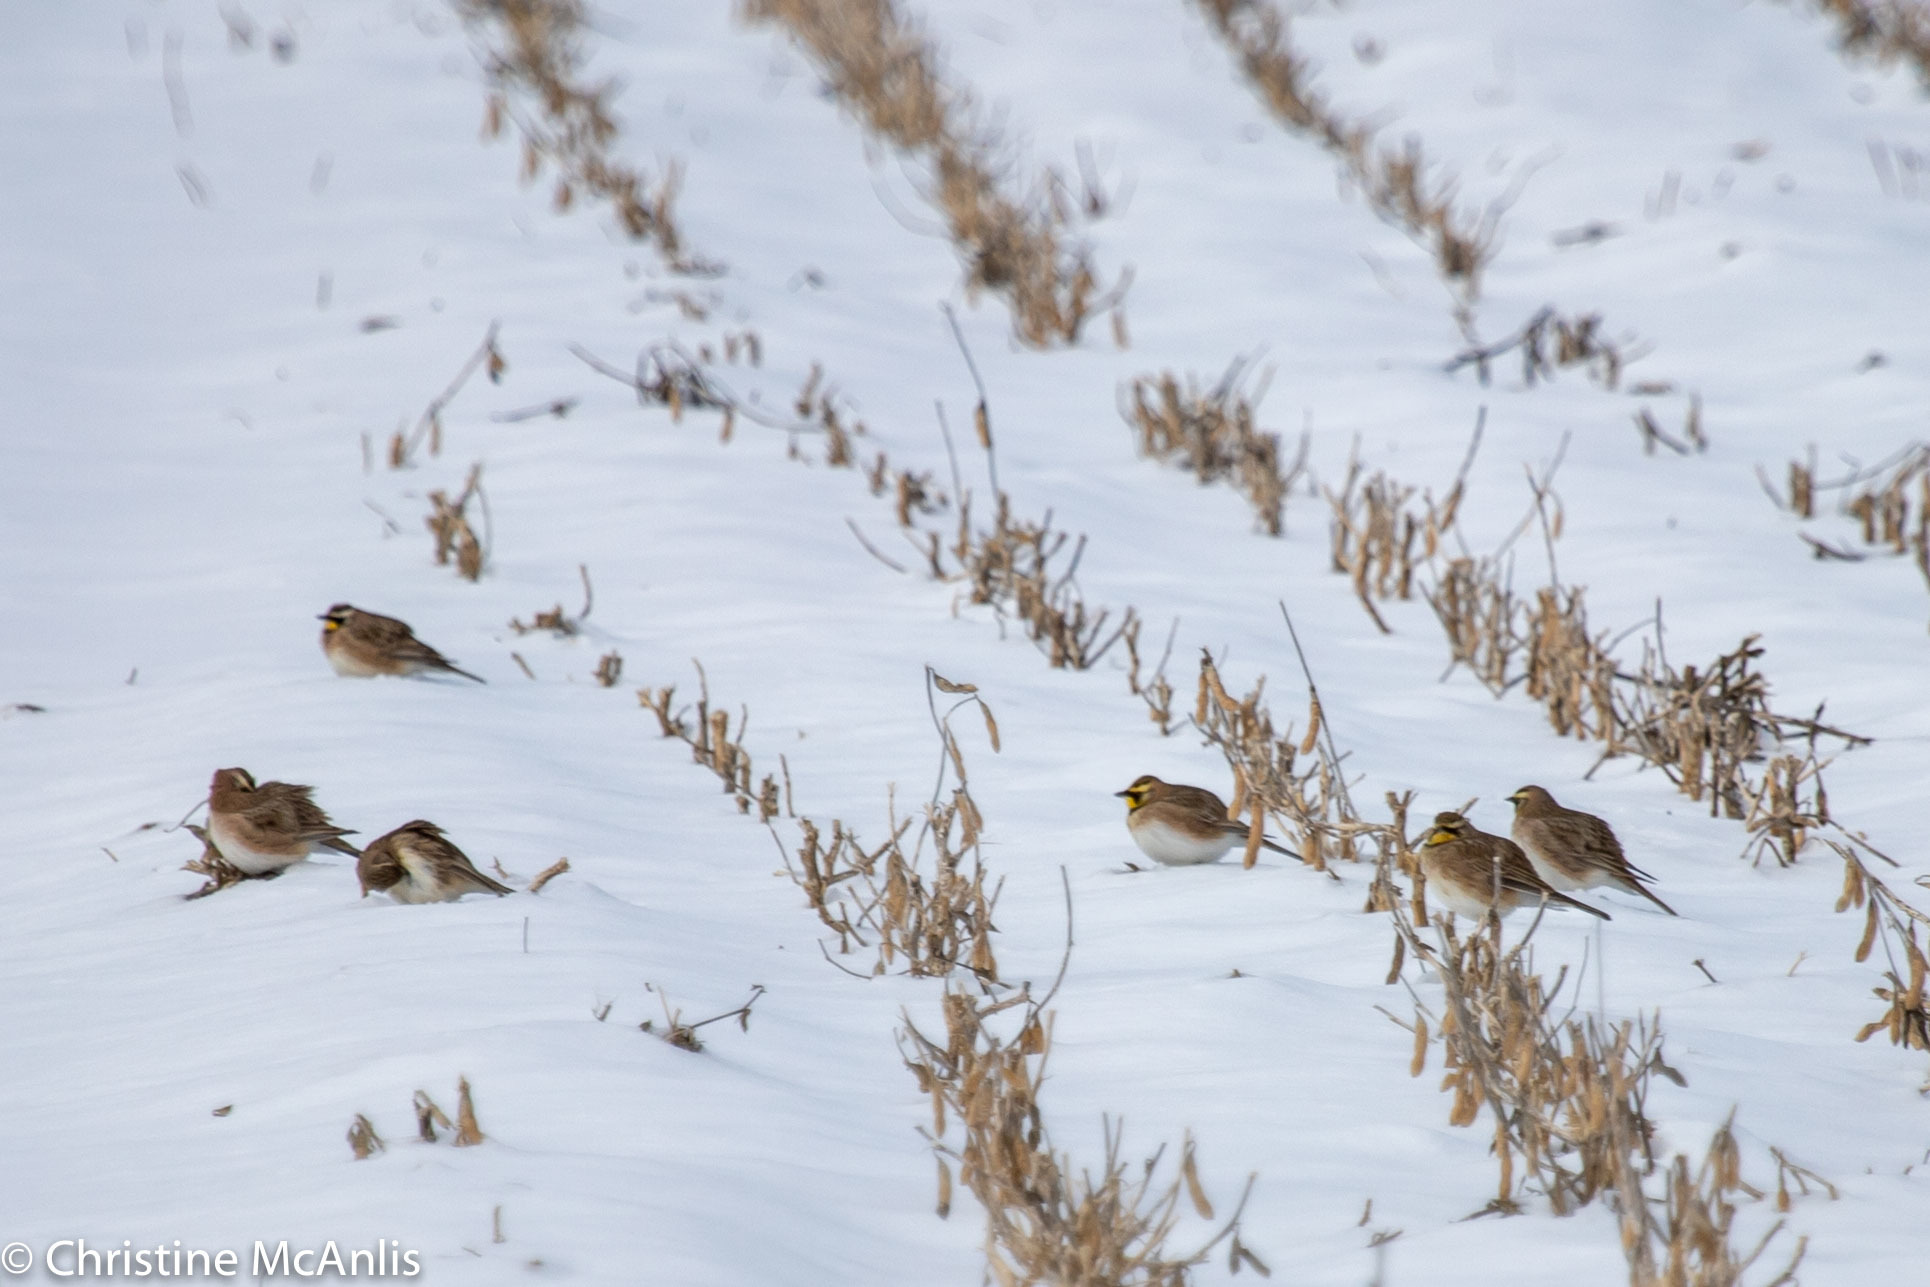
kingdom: Animalia
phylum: Chordata
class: Aves
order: Passeriformes
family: Alaudidae
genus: Eremophila
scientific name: Eremophila alpestris
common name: Horned lark
